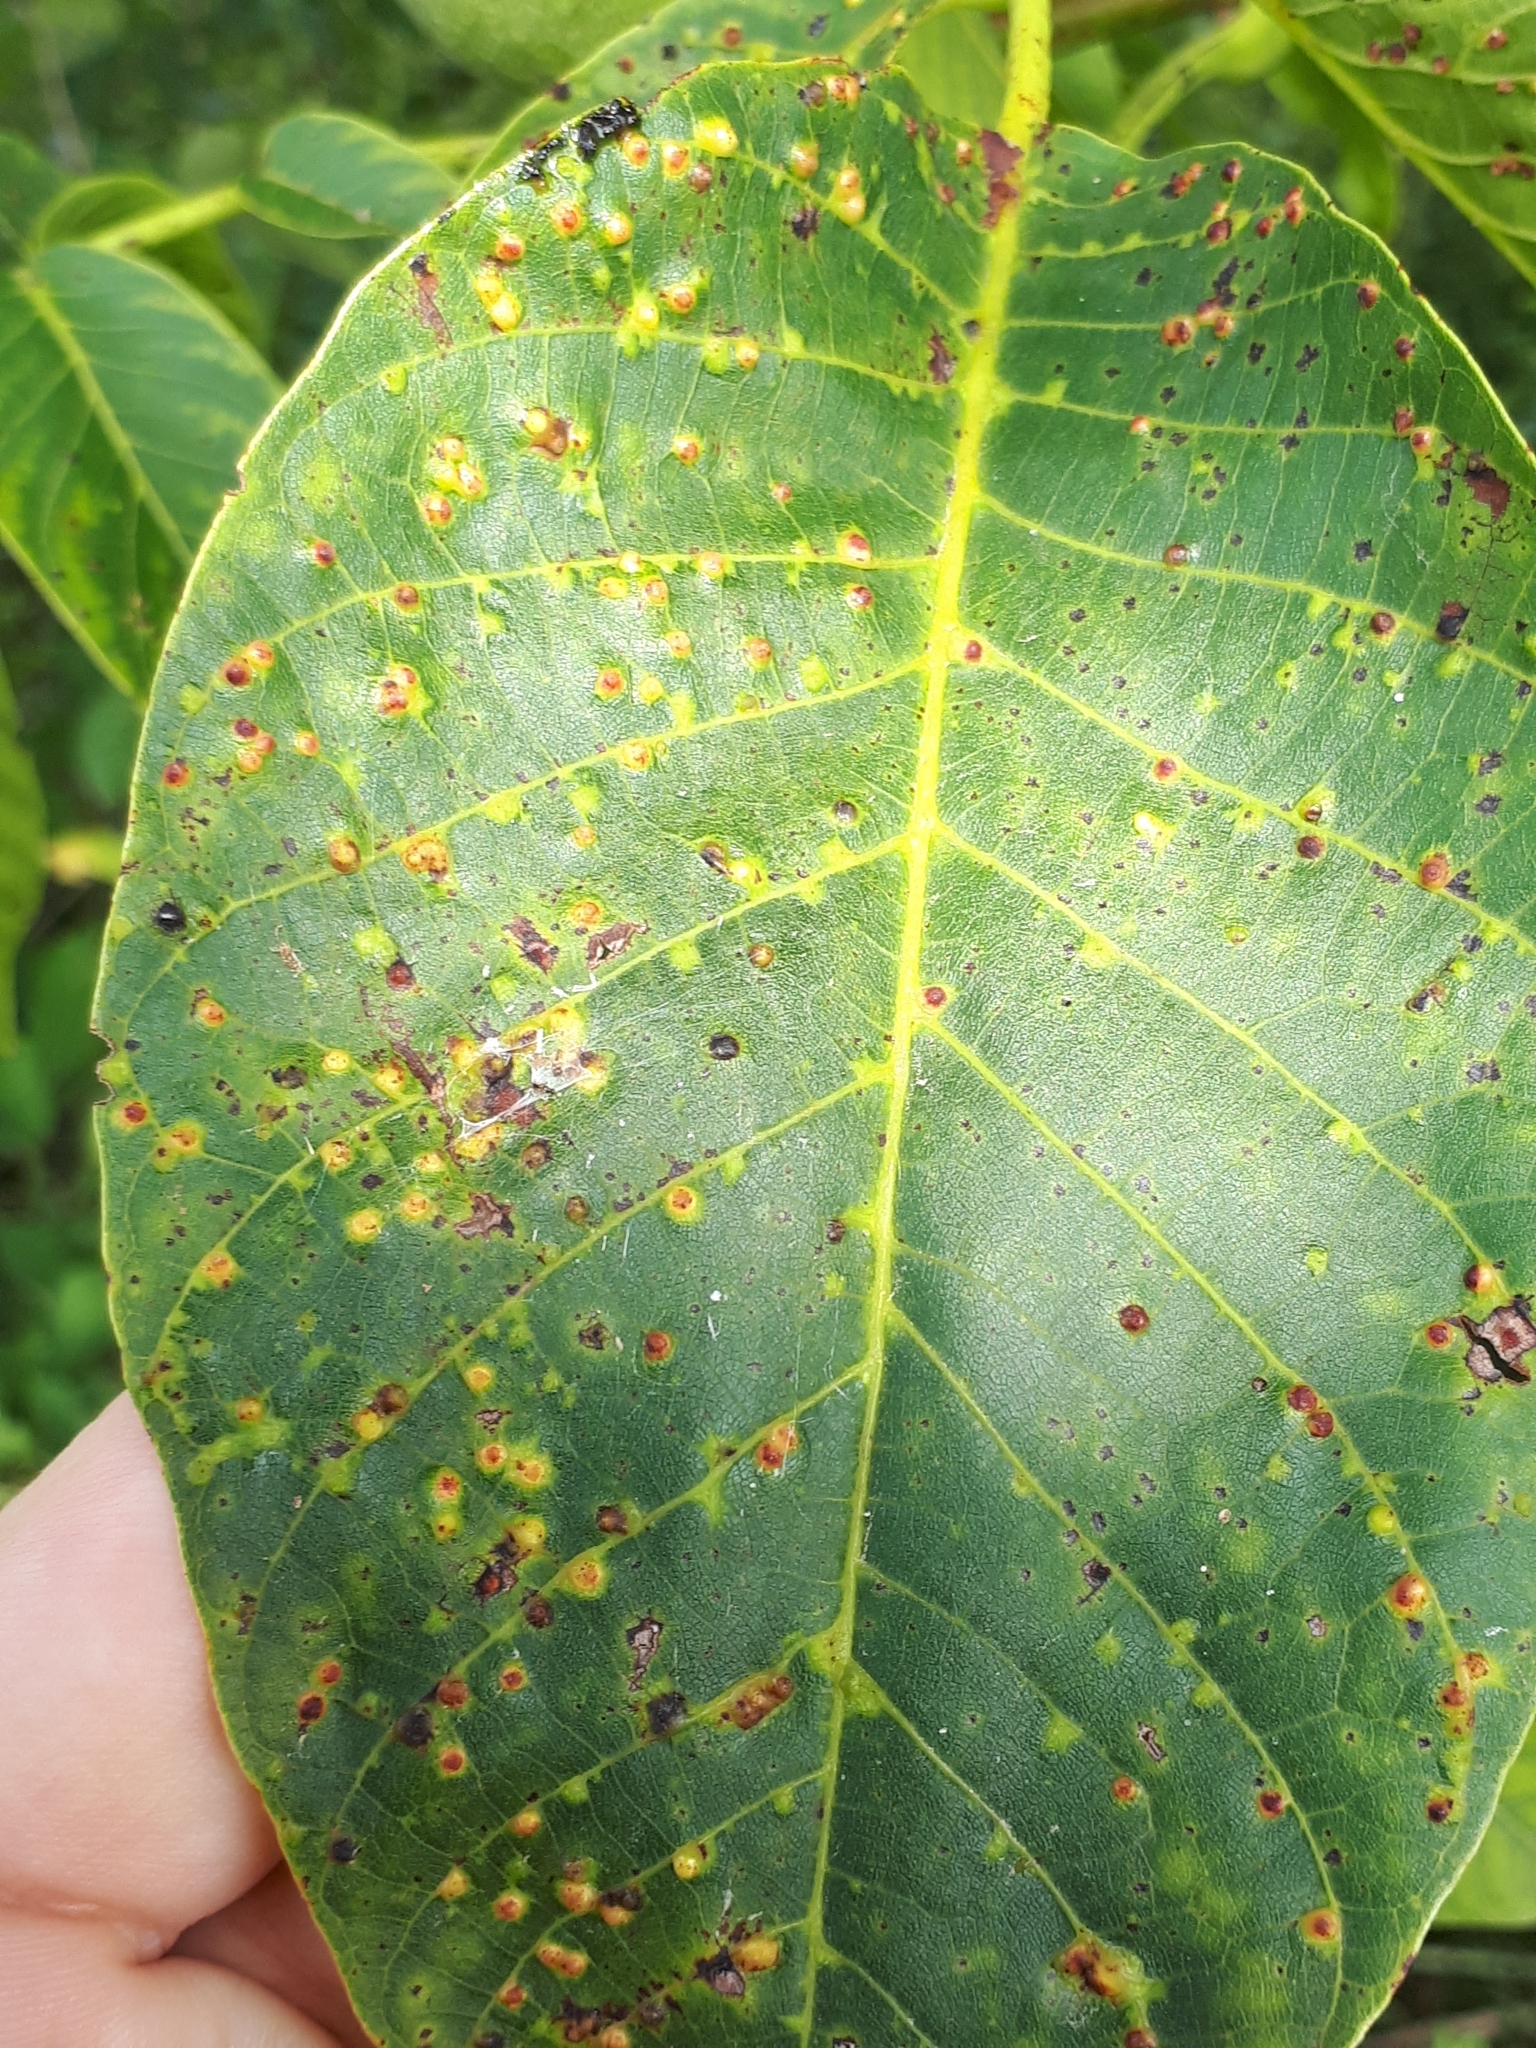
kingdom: Animalia
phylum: Arthropoda
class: Arachnida
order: Trombidiformes
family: Eriophyidae
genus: Aceria
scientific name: Aceria tristriata
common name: Persian walnut leaf blister mite
